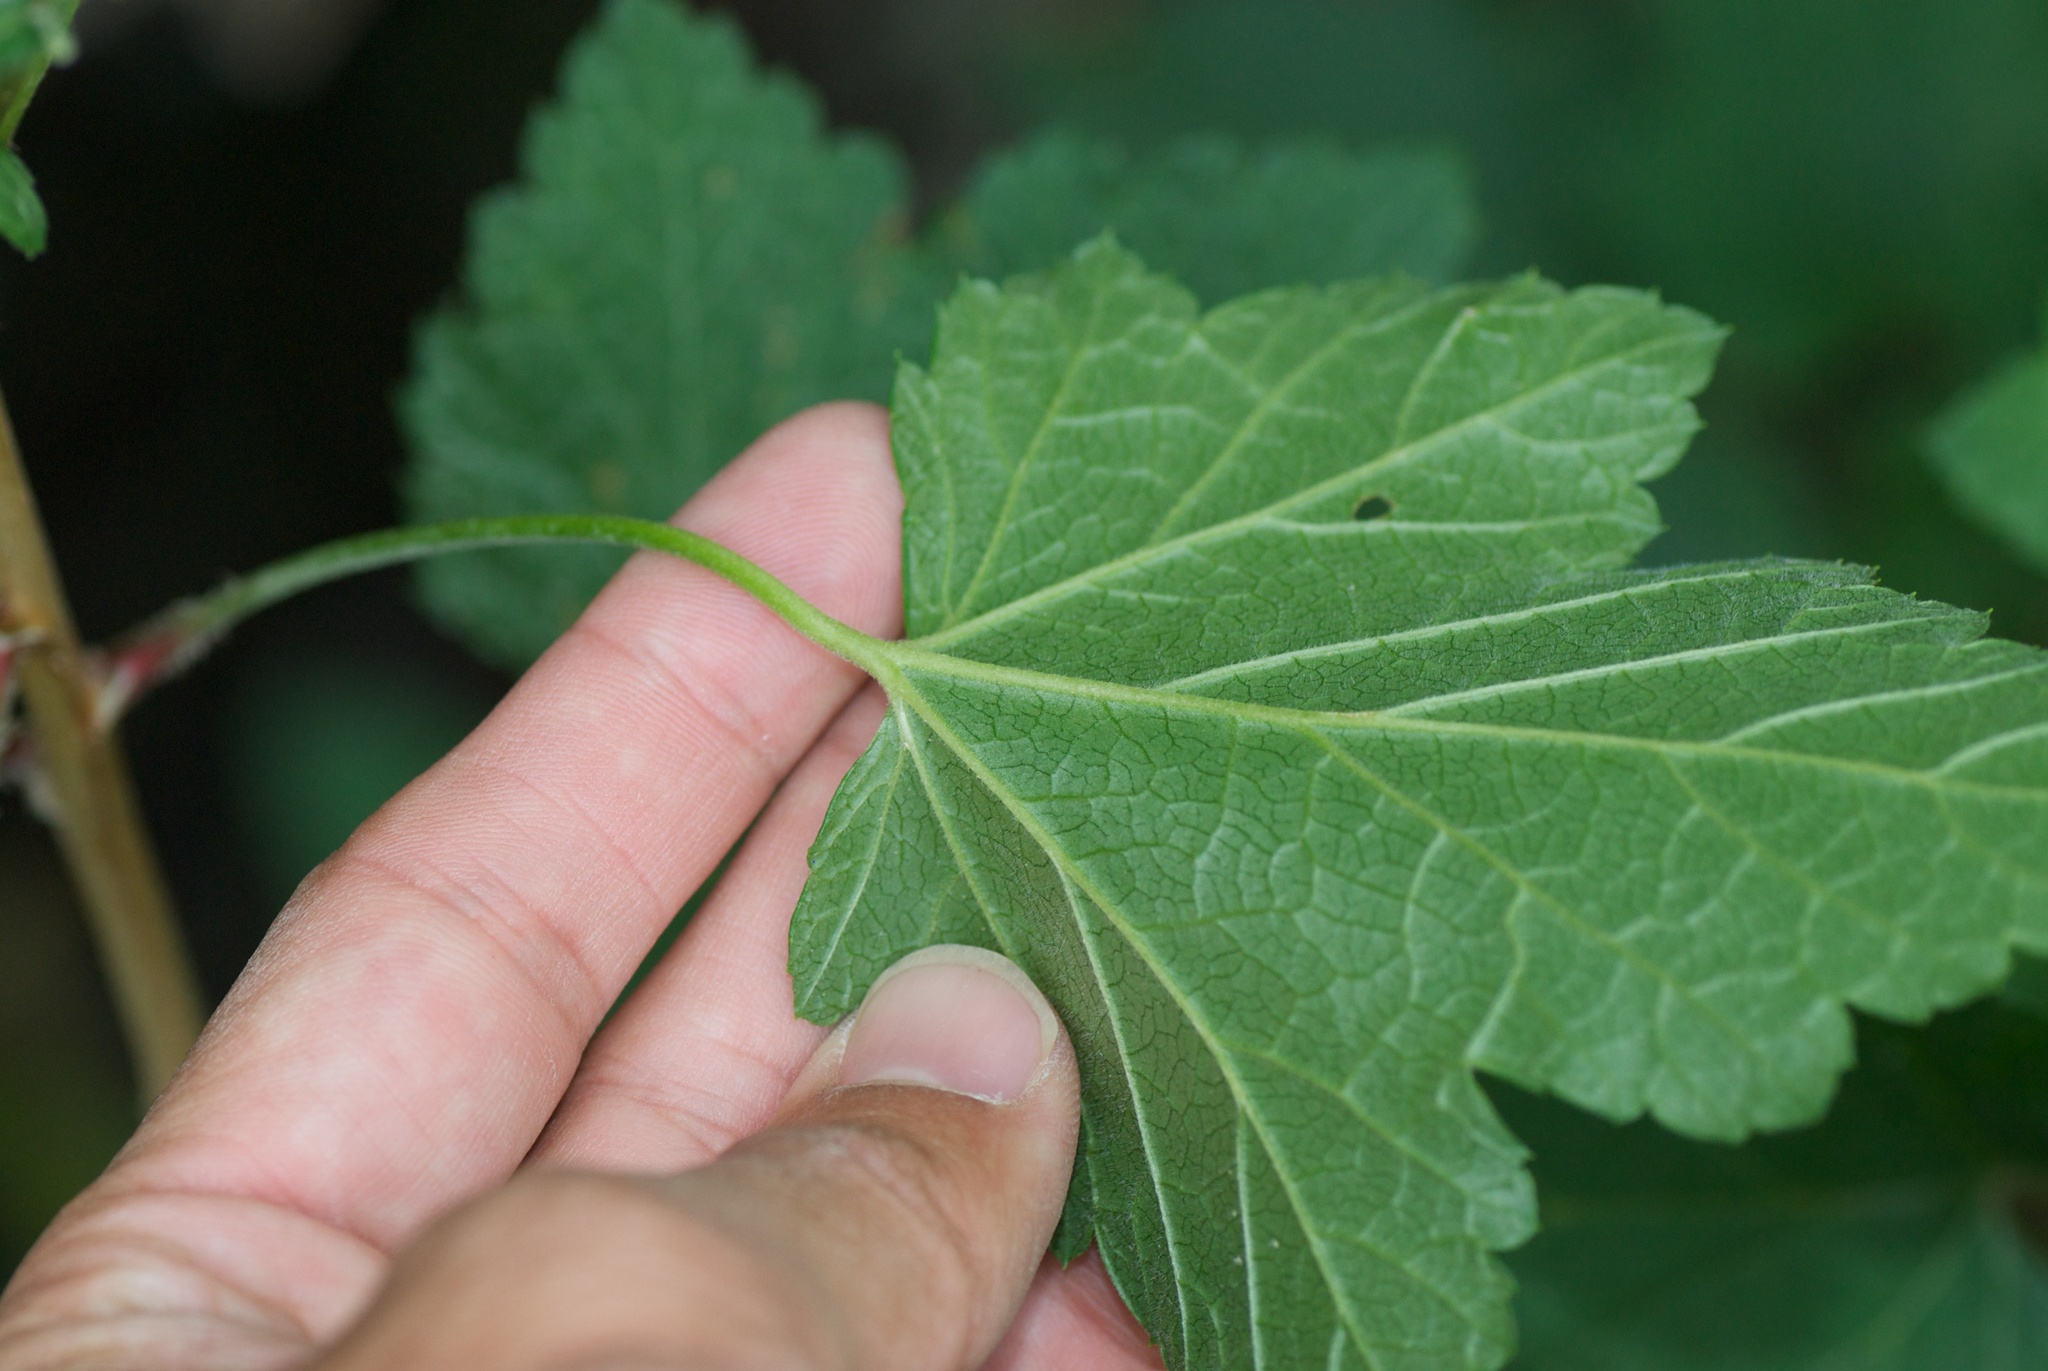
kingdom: Plantae
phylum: Tracheophyta
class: Magnoliopsida
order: Saxifragales
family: Grossulariaceae
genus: Ribes
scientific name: Ribes uva-crispa
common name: Gooseberry
